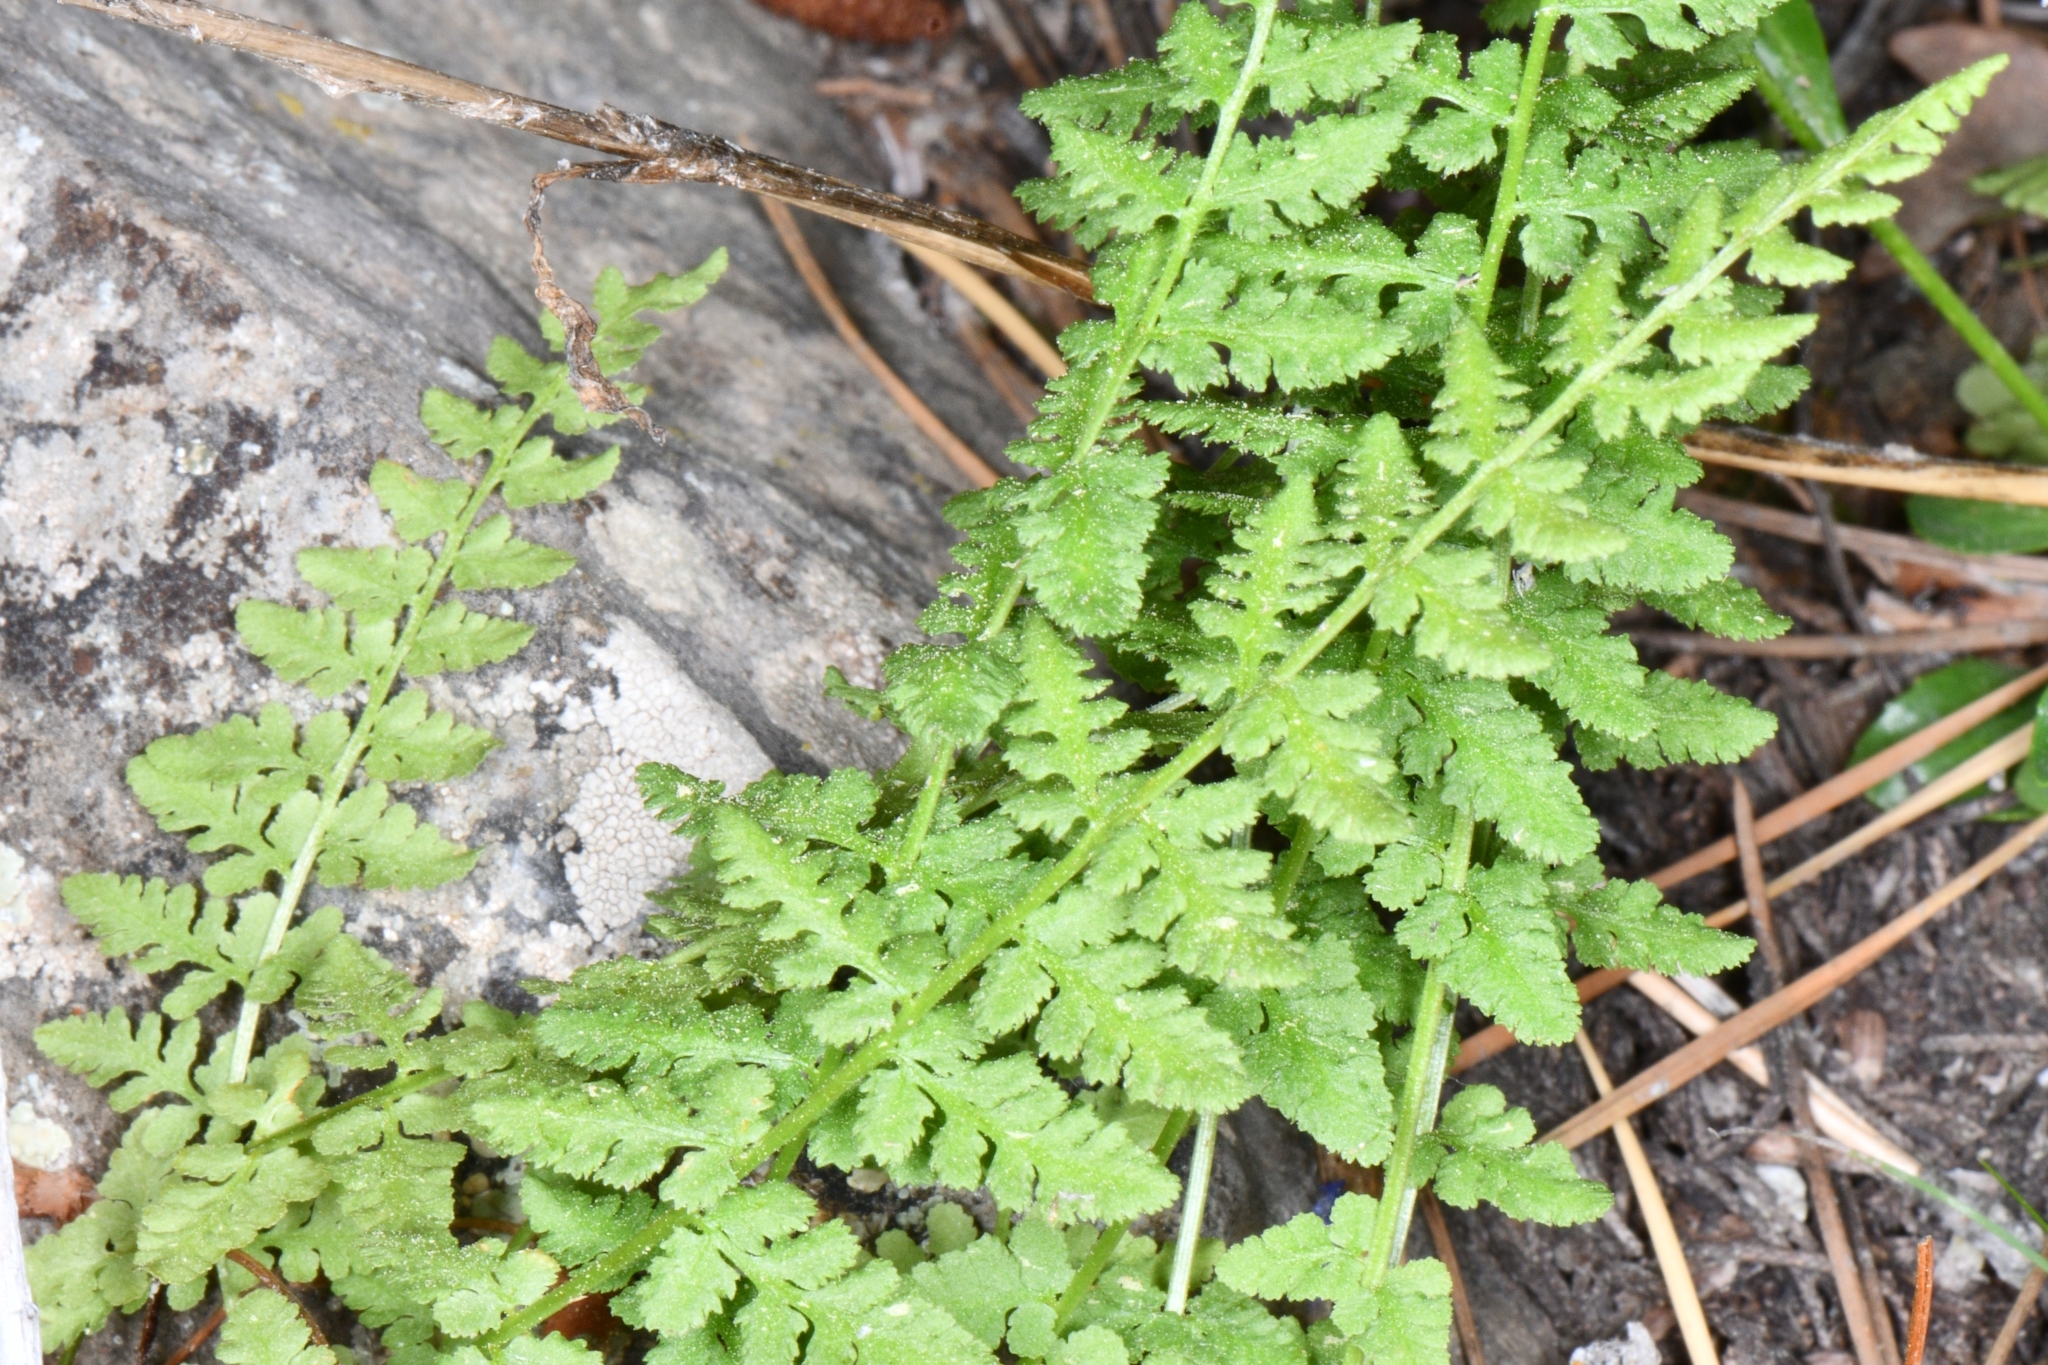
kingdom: Plantae
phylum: Tracheophyta
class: Polypodiopsida
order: Polypodiales
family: Woodsiaceae
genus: Physematium
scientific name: Physematium oreganum
